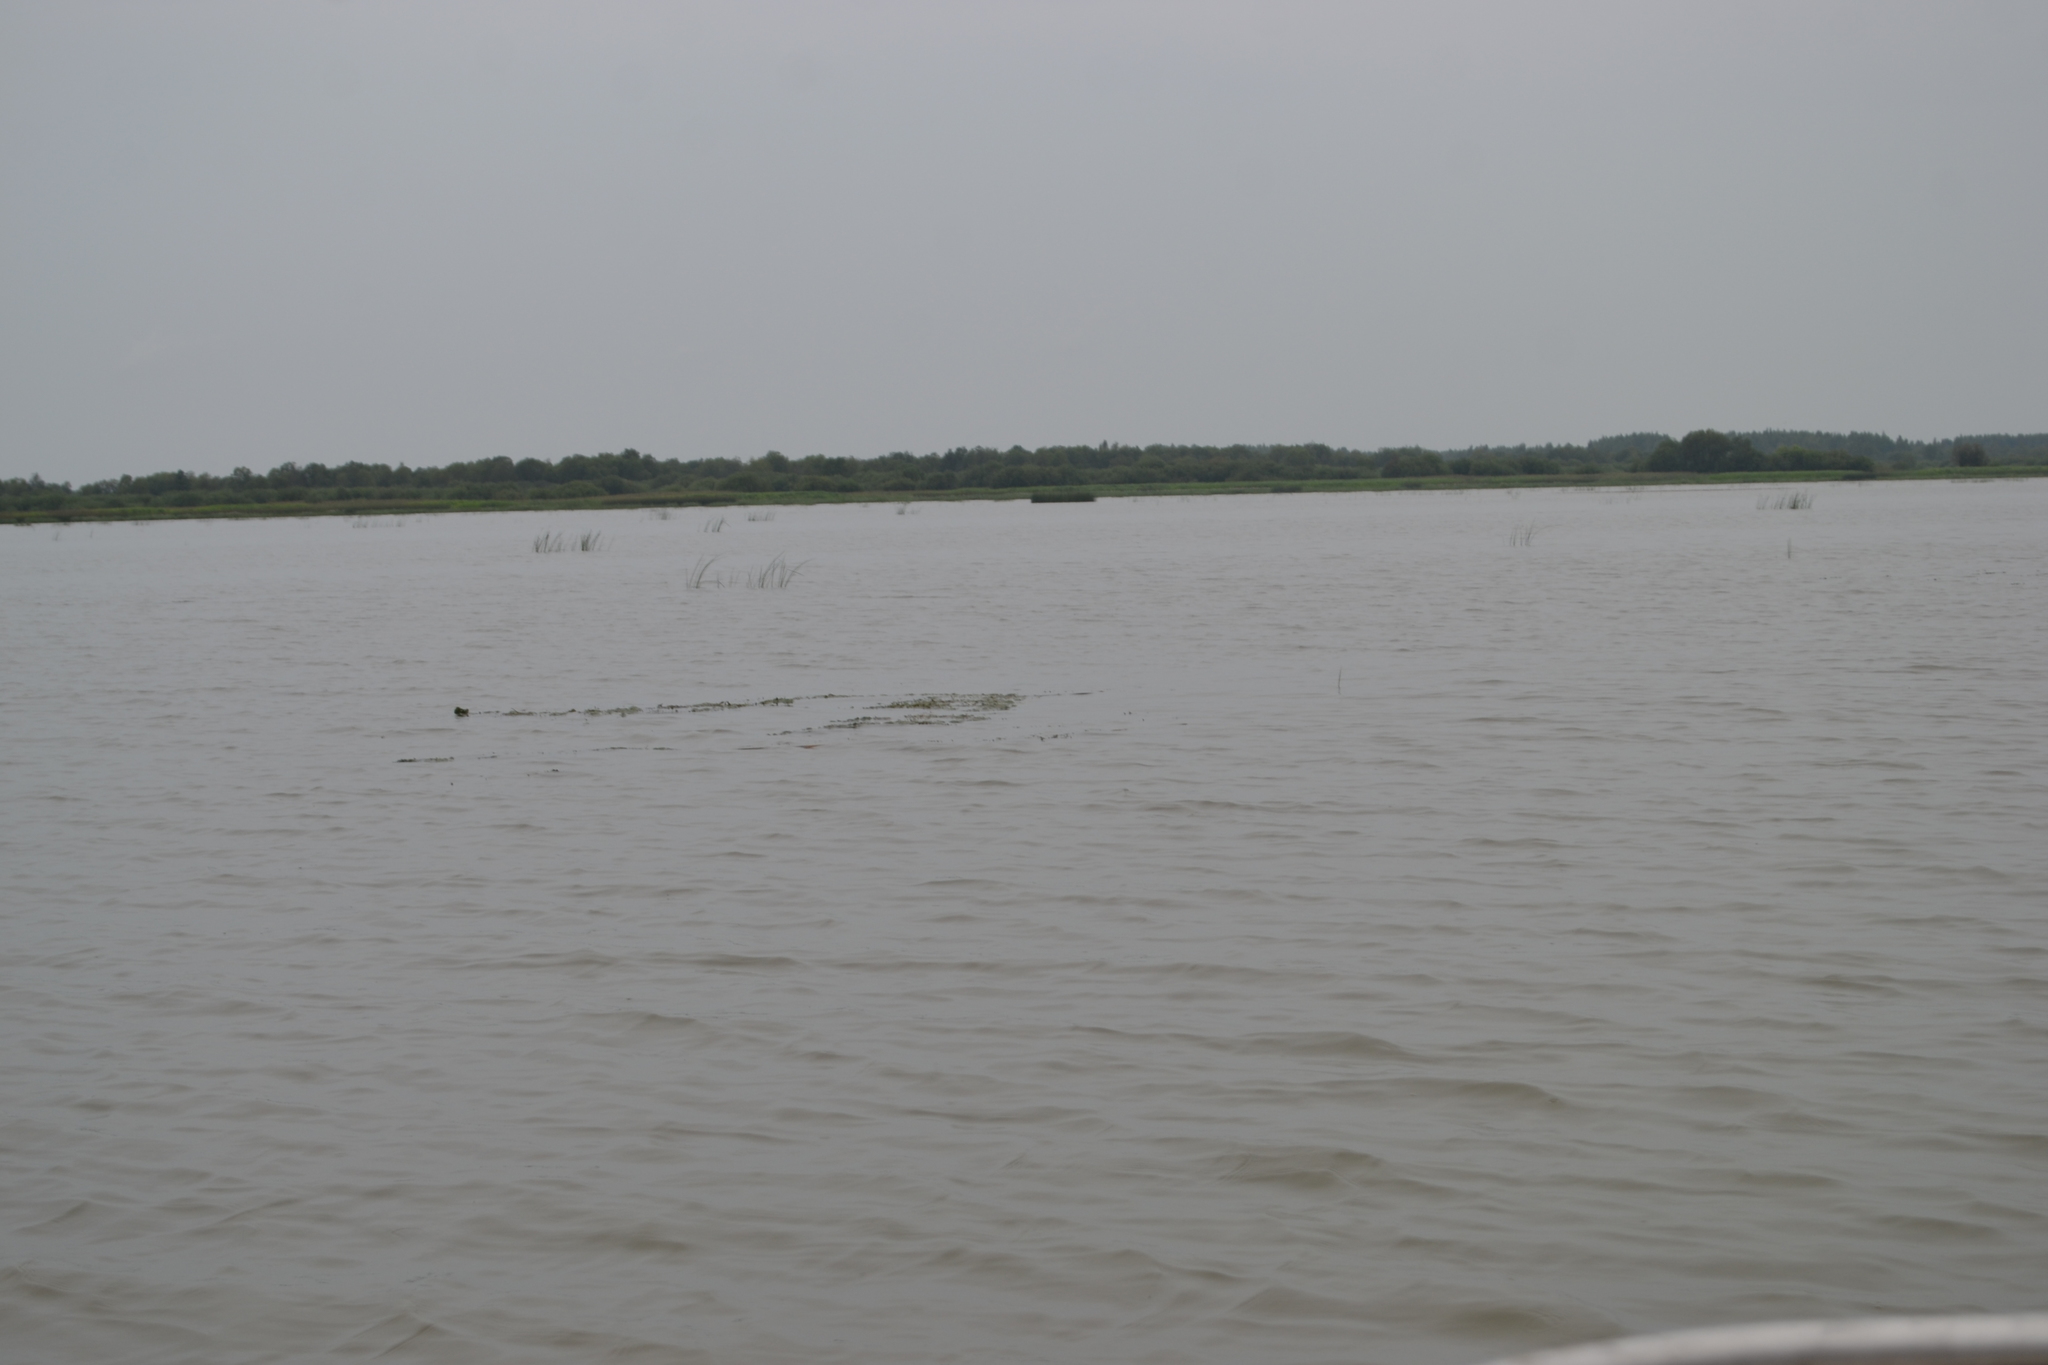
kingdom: Plantae
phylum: Tracheophyta
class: Liliopsida
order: Alismatales
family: Potamogetonaceae
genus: Potamogeton
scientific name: Potamogeton perfoliatus
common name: Perfoliate pondweed
